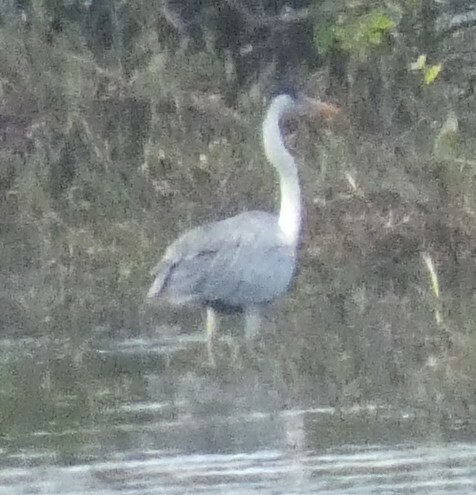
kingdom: Animalia
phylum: Chordata
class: Aves
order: Pelecaniformes
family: Ardeidae
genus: Ardea
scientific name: Ardea cocoi
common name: Cocoi heron
